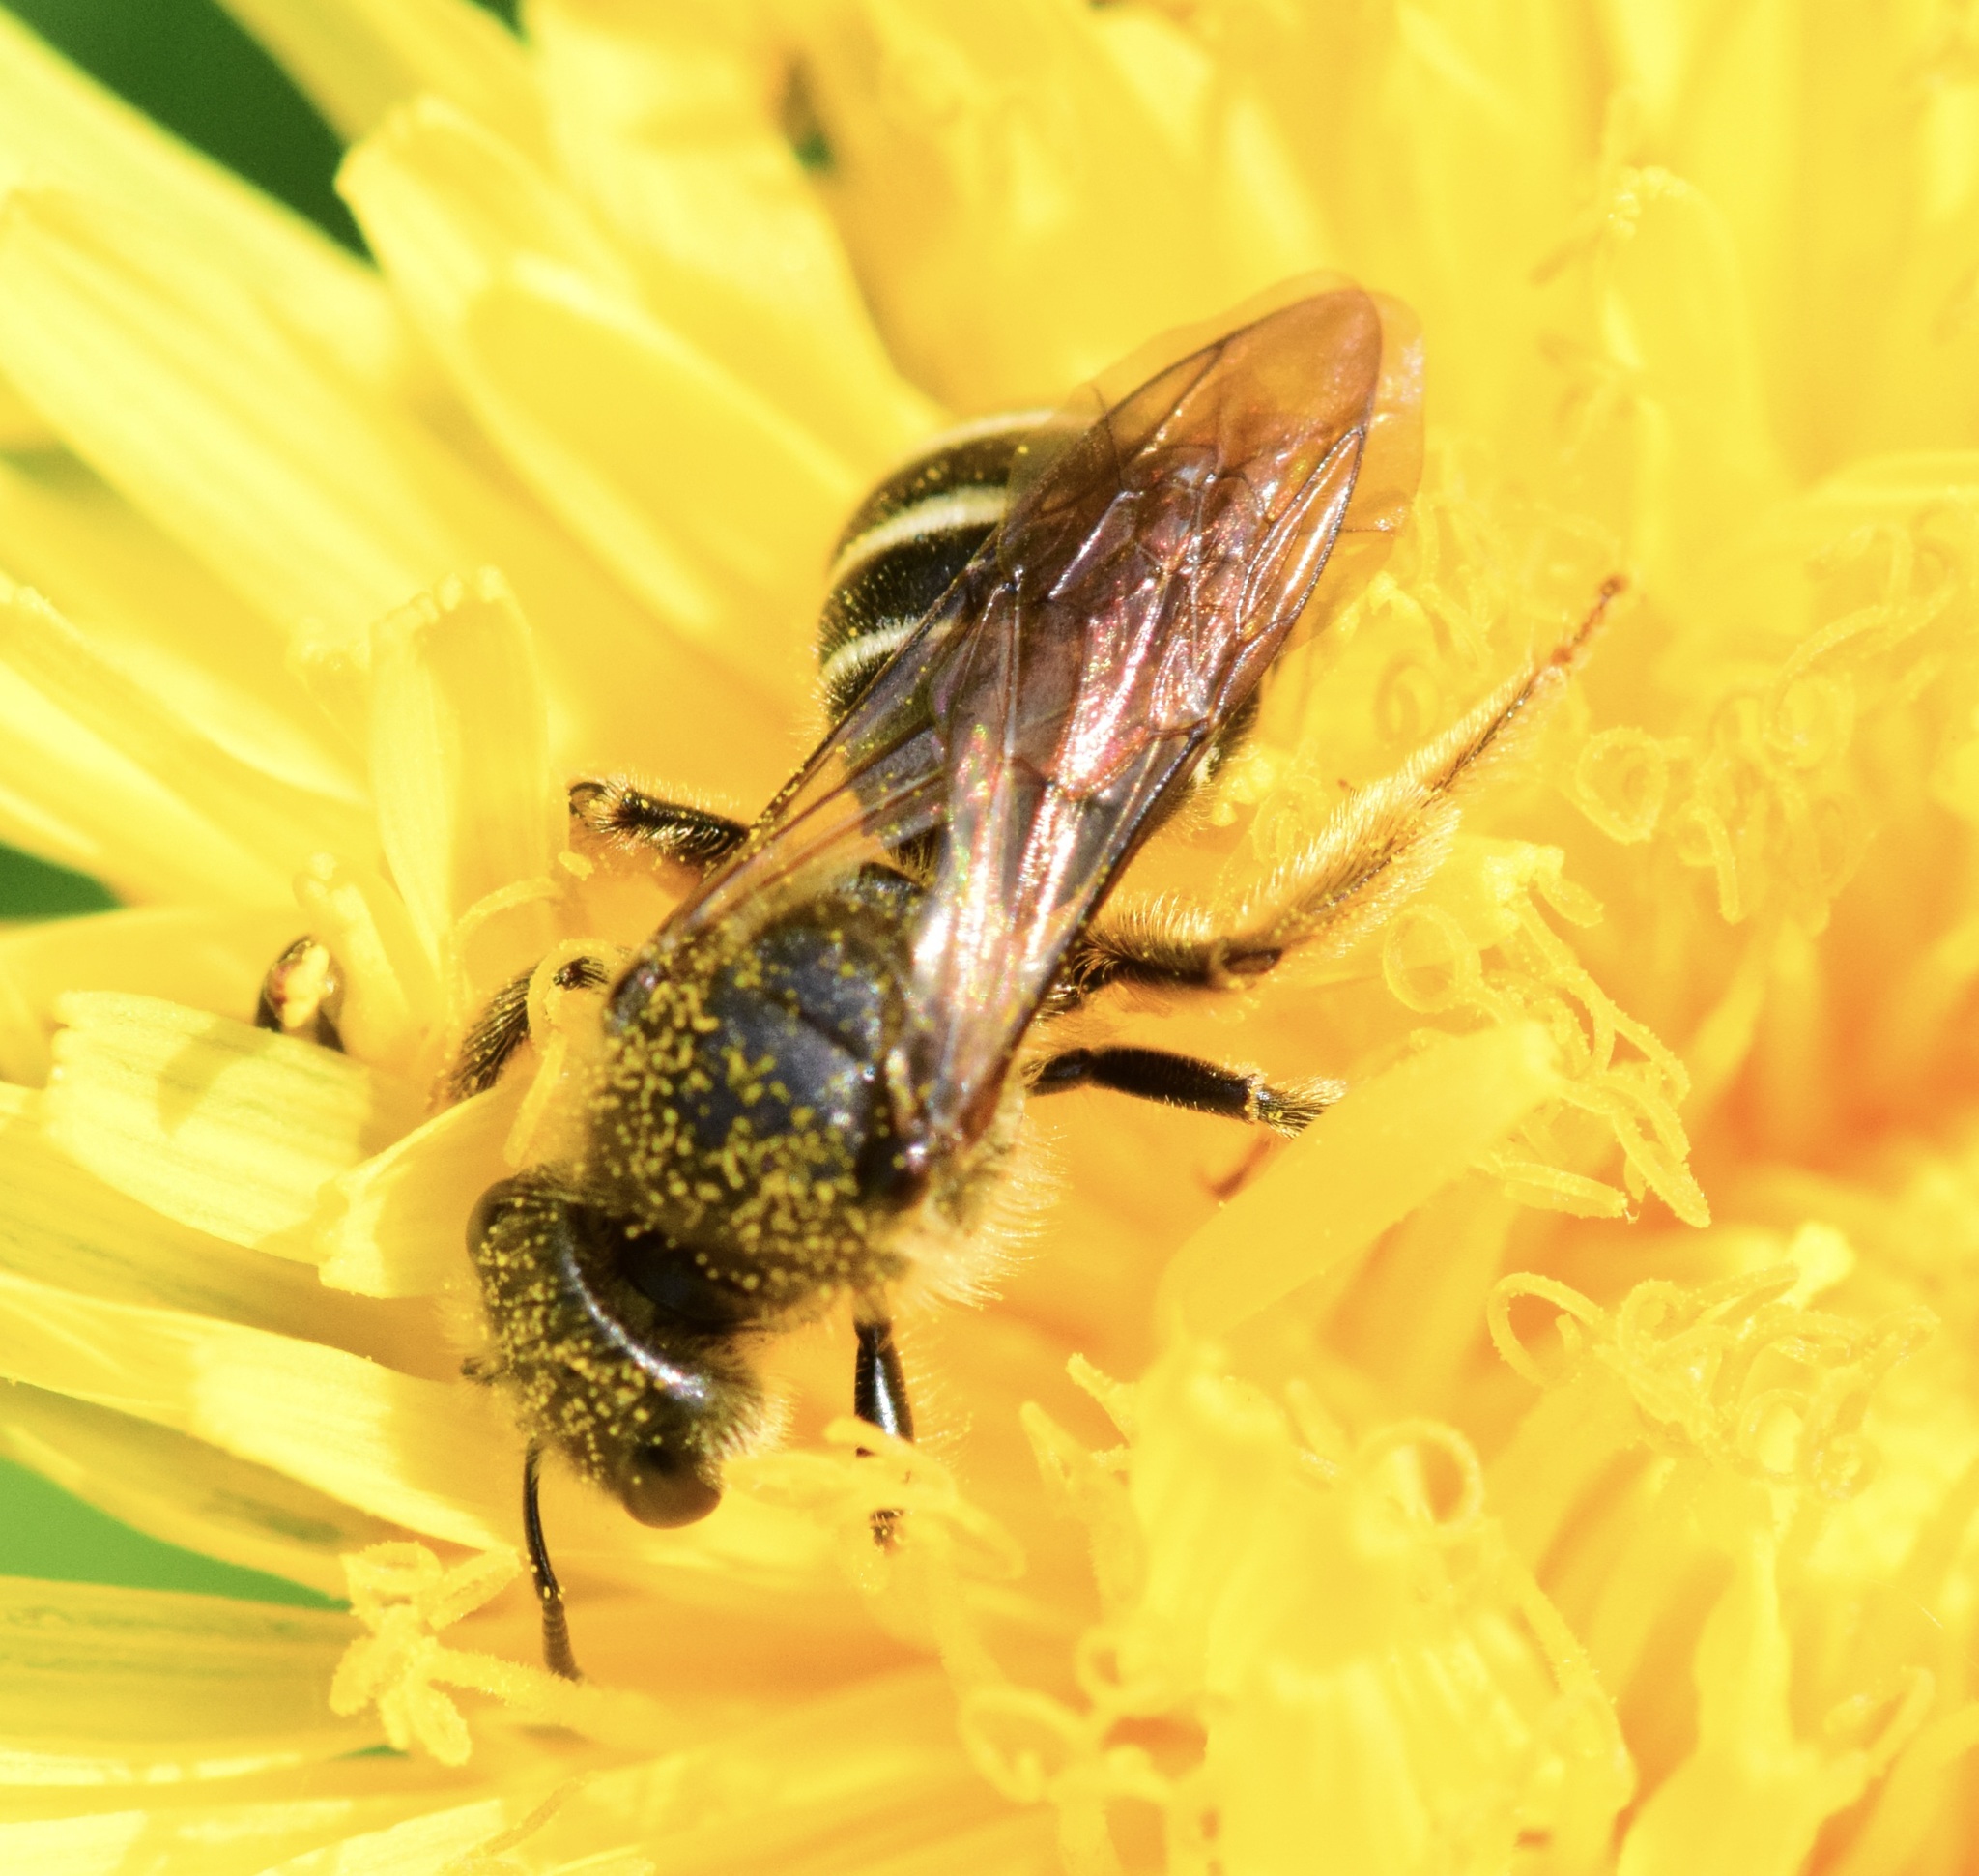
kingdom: Animalia
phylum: Arthropoda
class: Insecta
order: Hymenoptera
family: Halictidae
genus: Halictus
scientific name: Halictus rubicundus
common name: Orange-legged furrow bee
